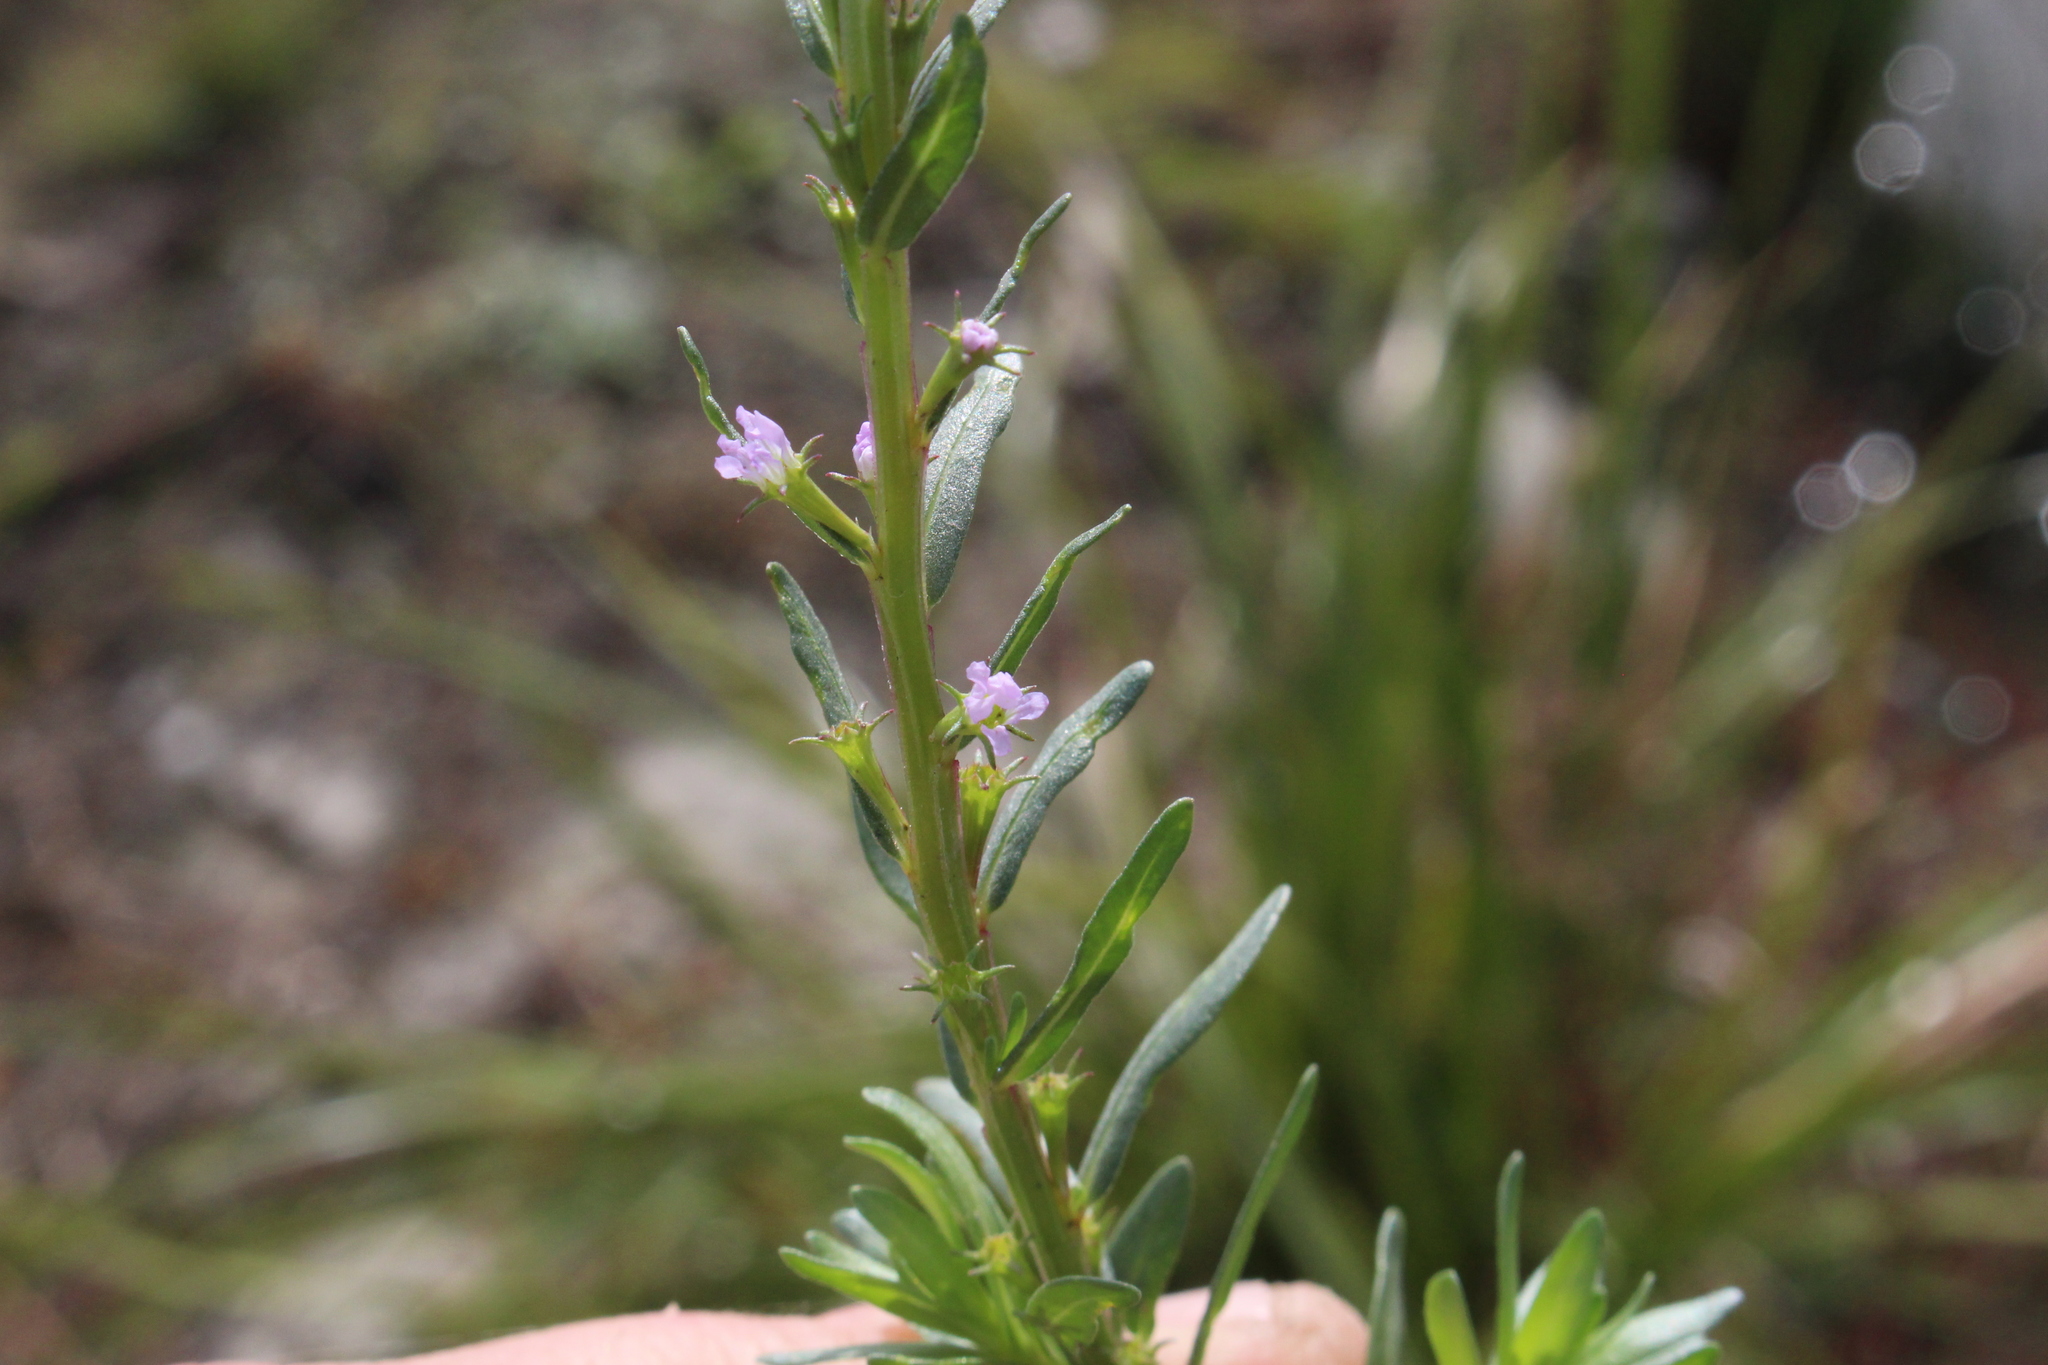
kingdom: Plantae
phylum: Tracheophyta
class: Magnoliopsida
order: Myrtales
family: Lythraceae
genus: Lythrum
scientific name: Lythrum hyssopifolia
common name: Grass-poly
